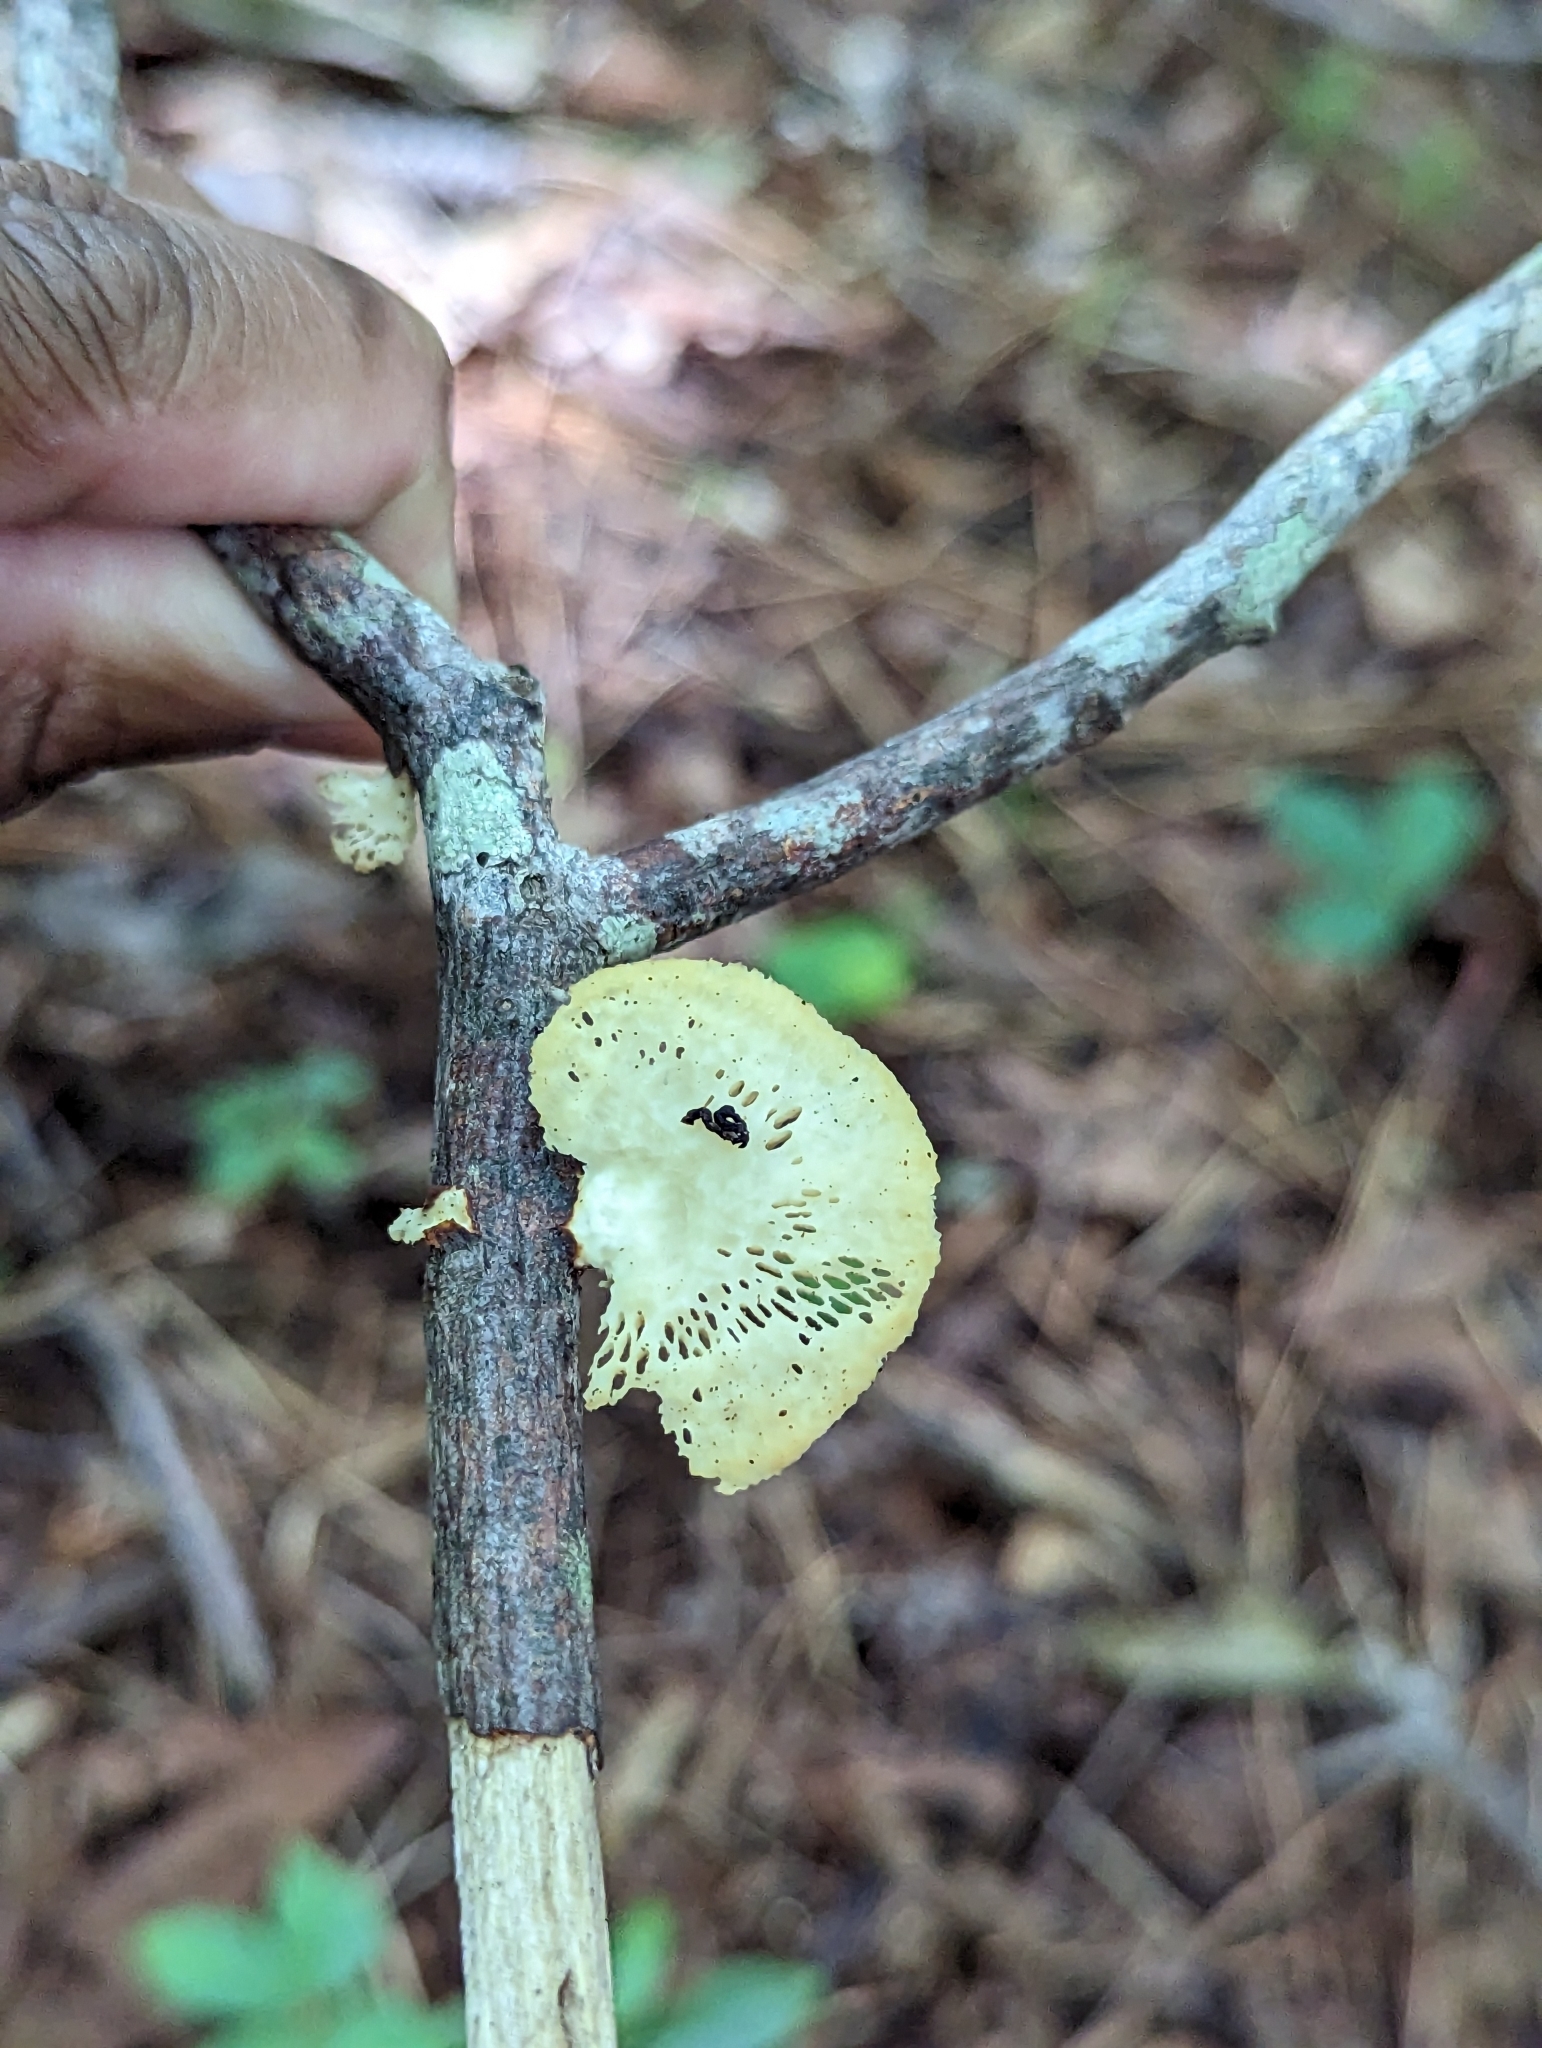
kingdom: Fungi
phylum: Basidiomycota
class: Agaricomycetes
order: Polyporales
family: Polyporaceae
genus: Neofavolus
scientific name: Neofavolus
